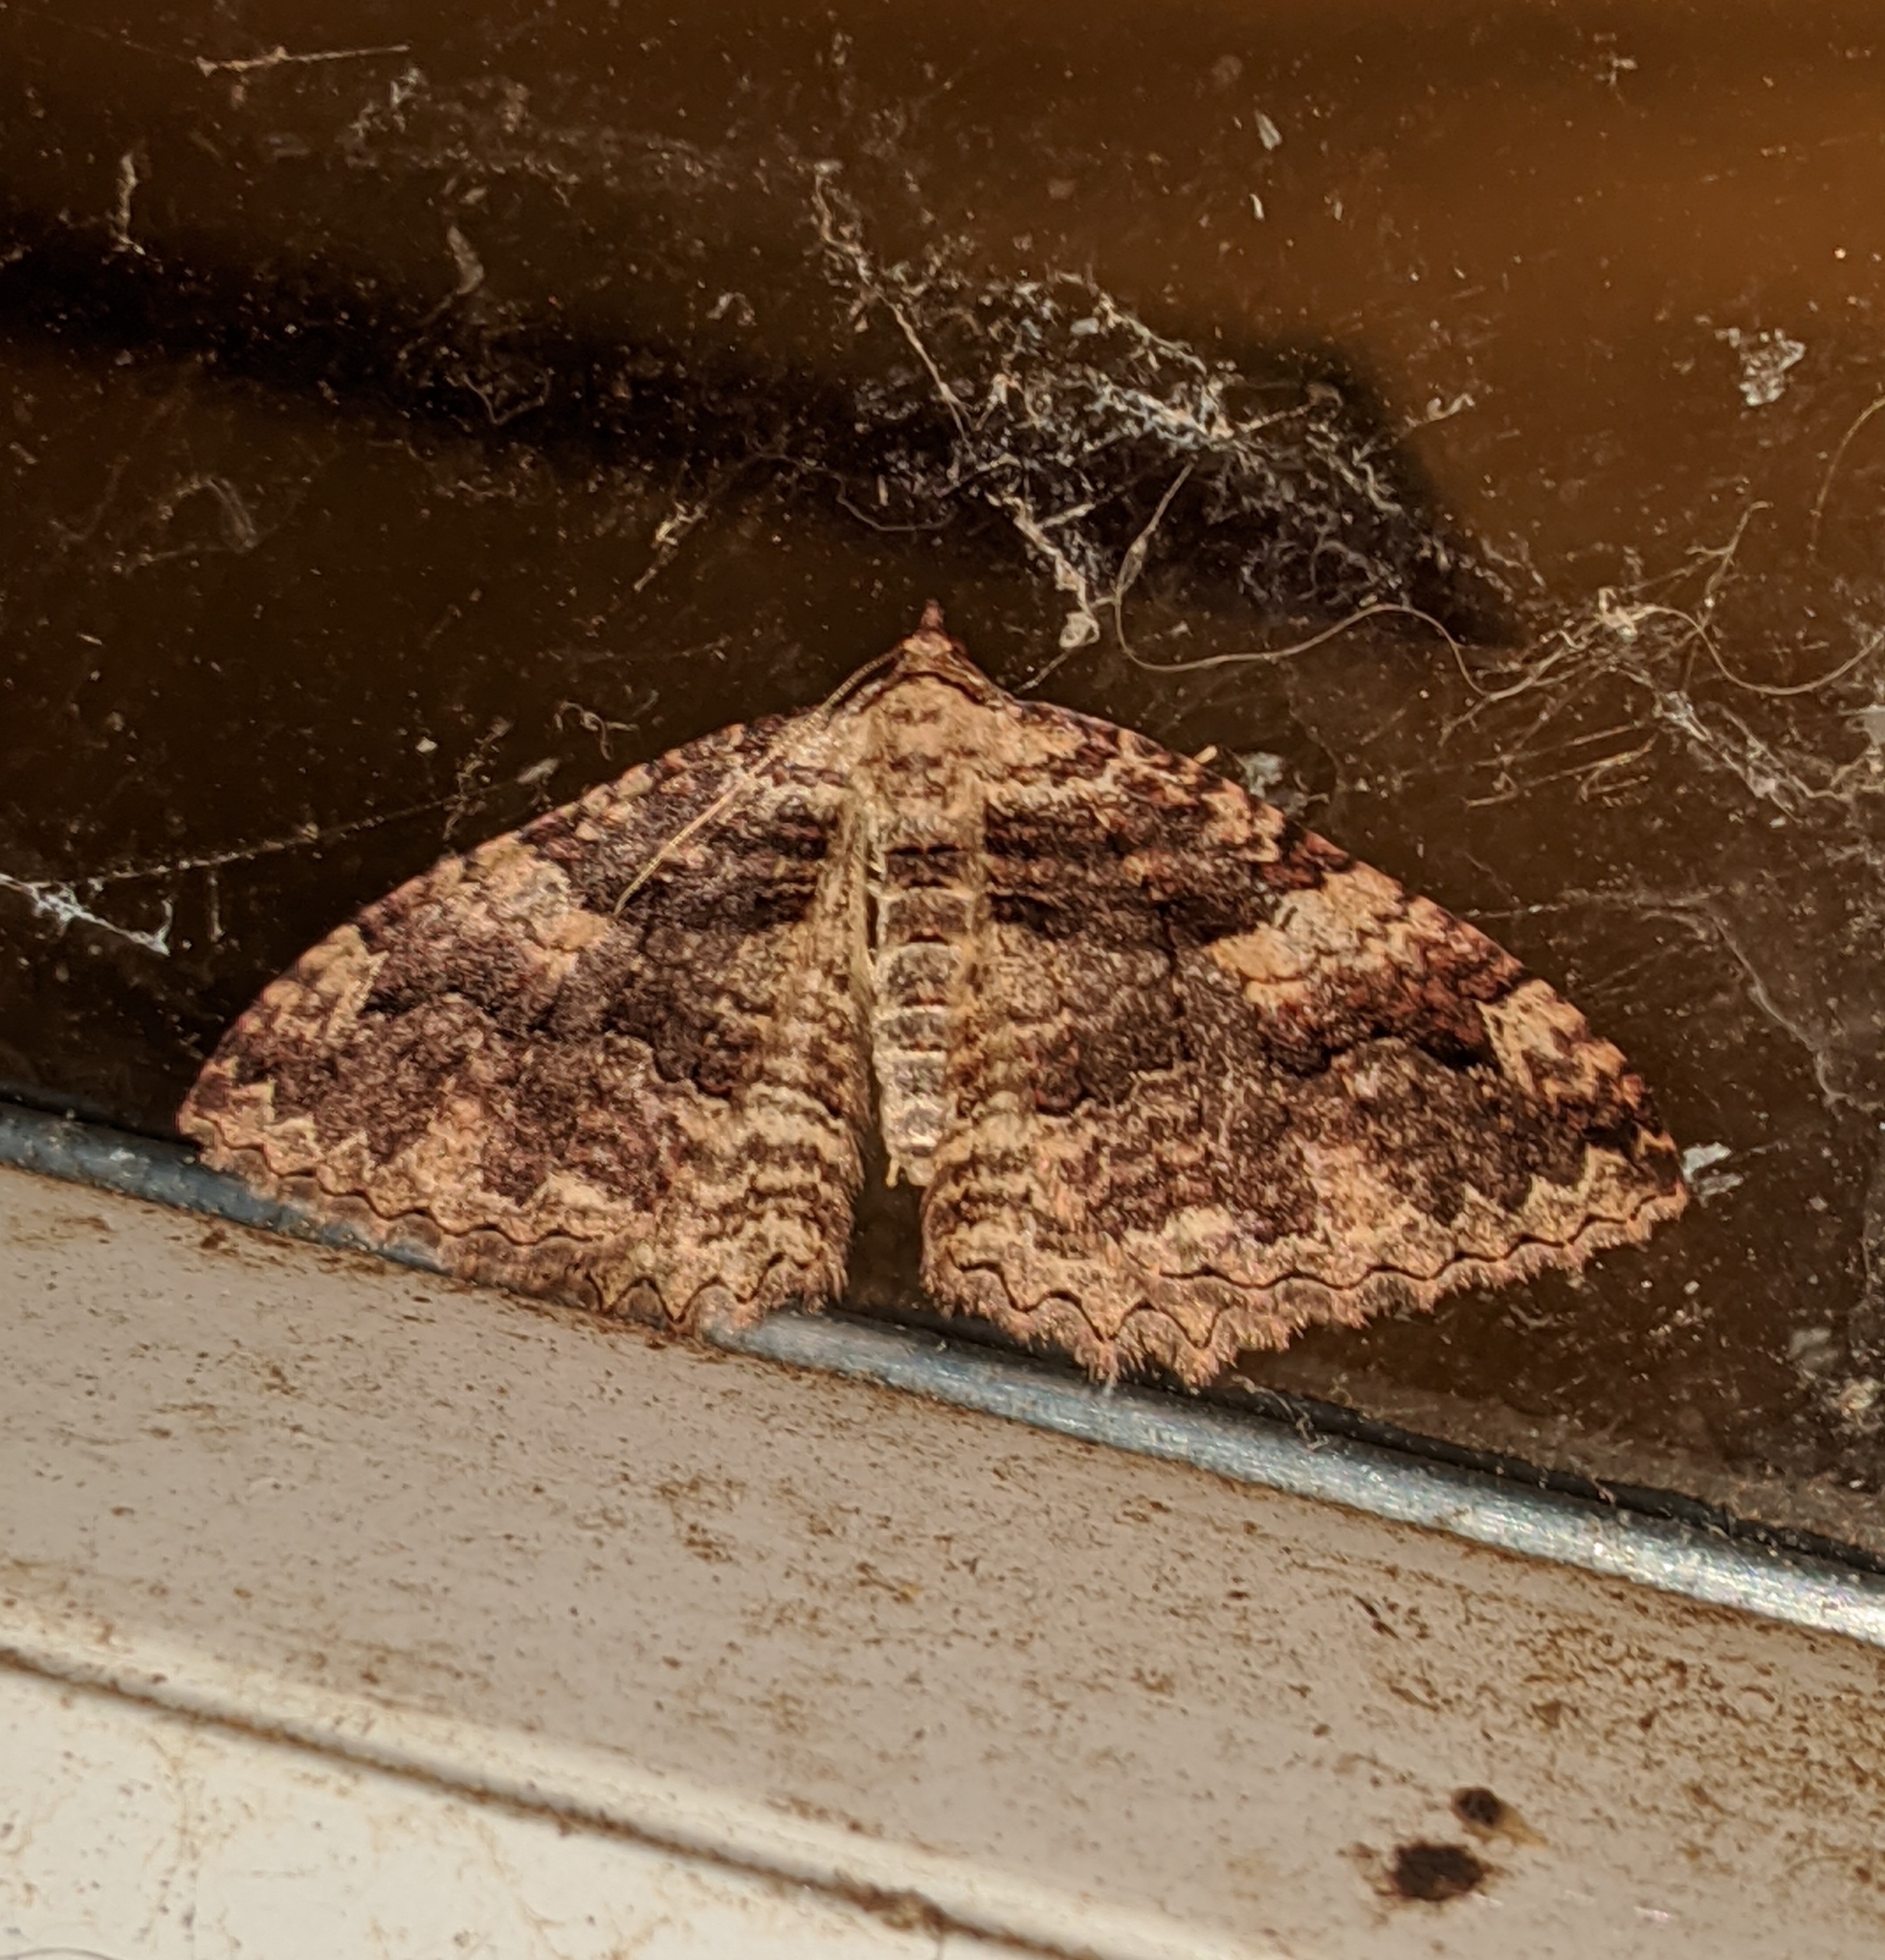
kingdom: Animalia
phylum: Arthropoda
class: Insecta
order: Lepidoptera
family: Geometridae
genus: Triphosa
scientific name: Triphosa haesitata
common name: Tissue moth
